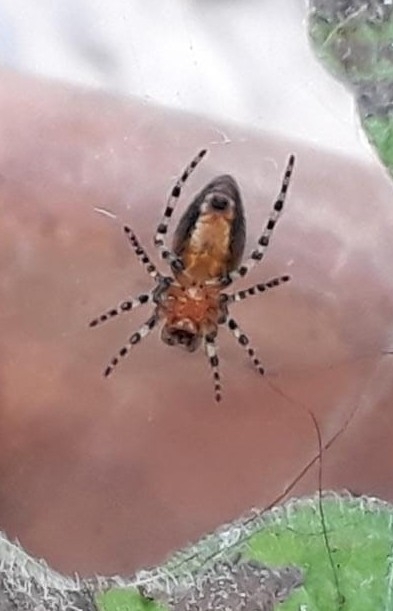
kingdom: Animalia
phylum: Arthropoda
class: Arachnida
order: Araneae
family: Araneidae
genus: Alpaida
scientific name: Alpaida gallardoi
